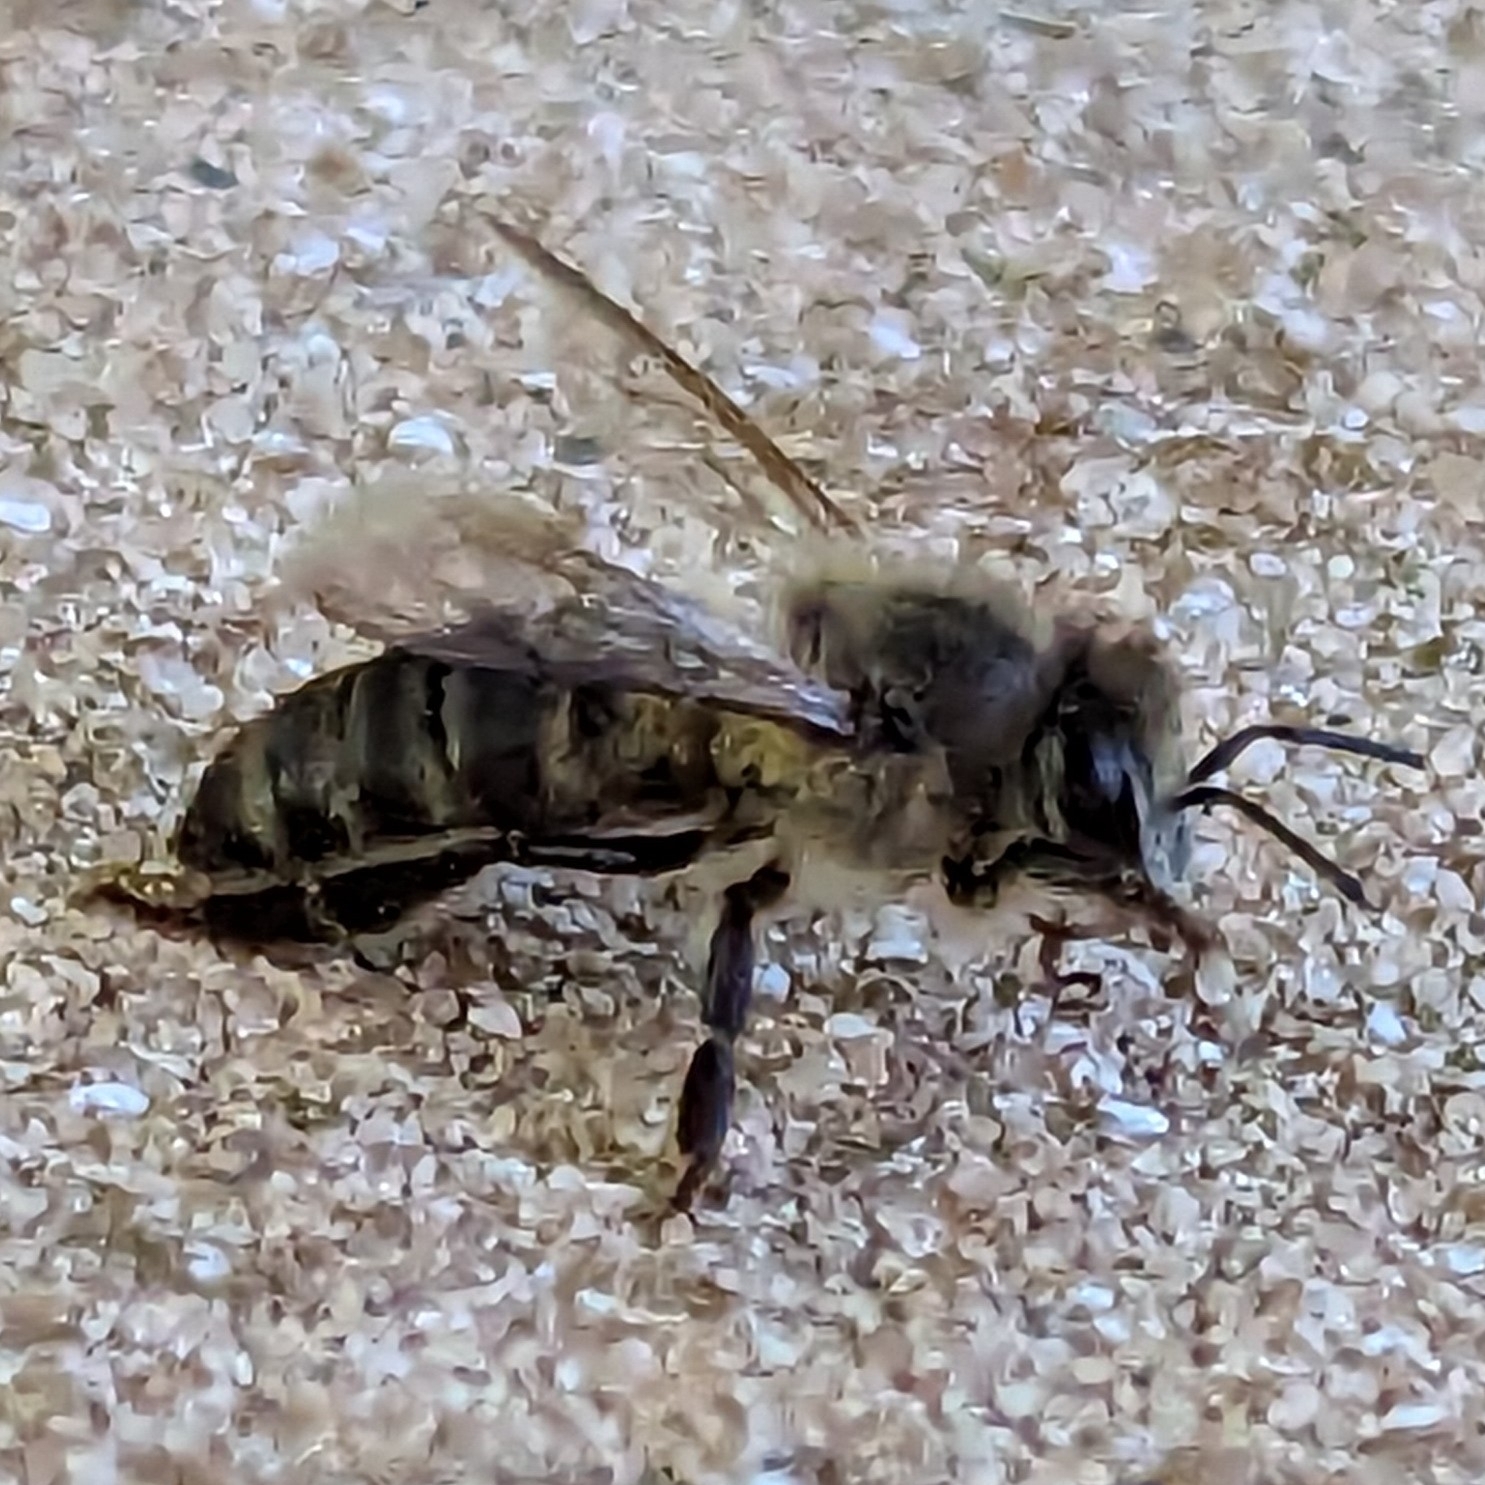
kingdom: Animalia
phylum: Arthropoda
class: Insecta
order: Hymenoptera
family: Apidae
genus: Apis
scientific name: Apis mellifera
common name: Honey bee
